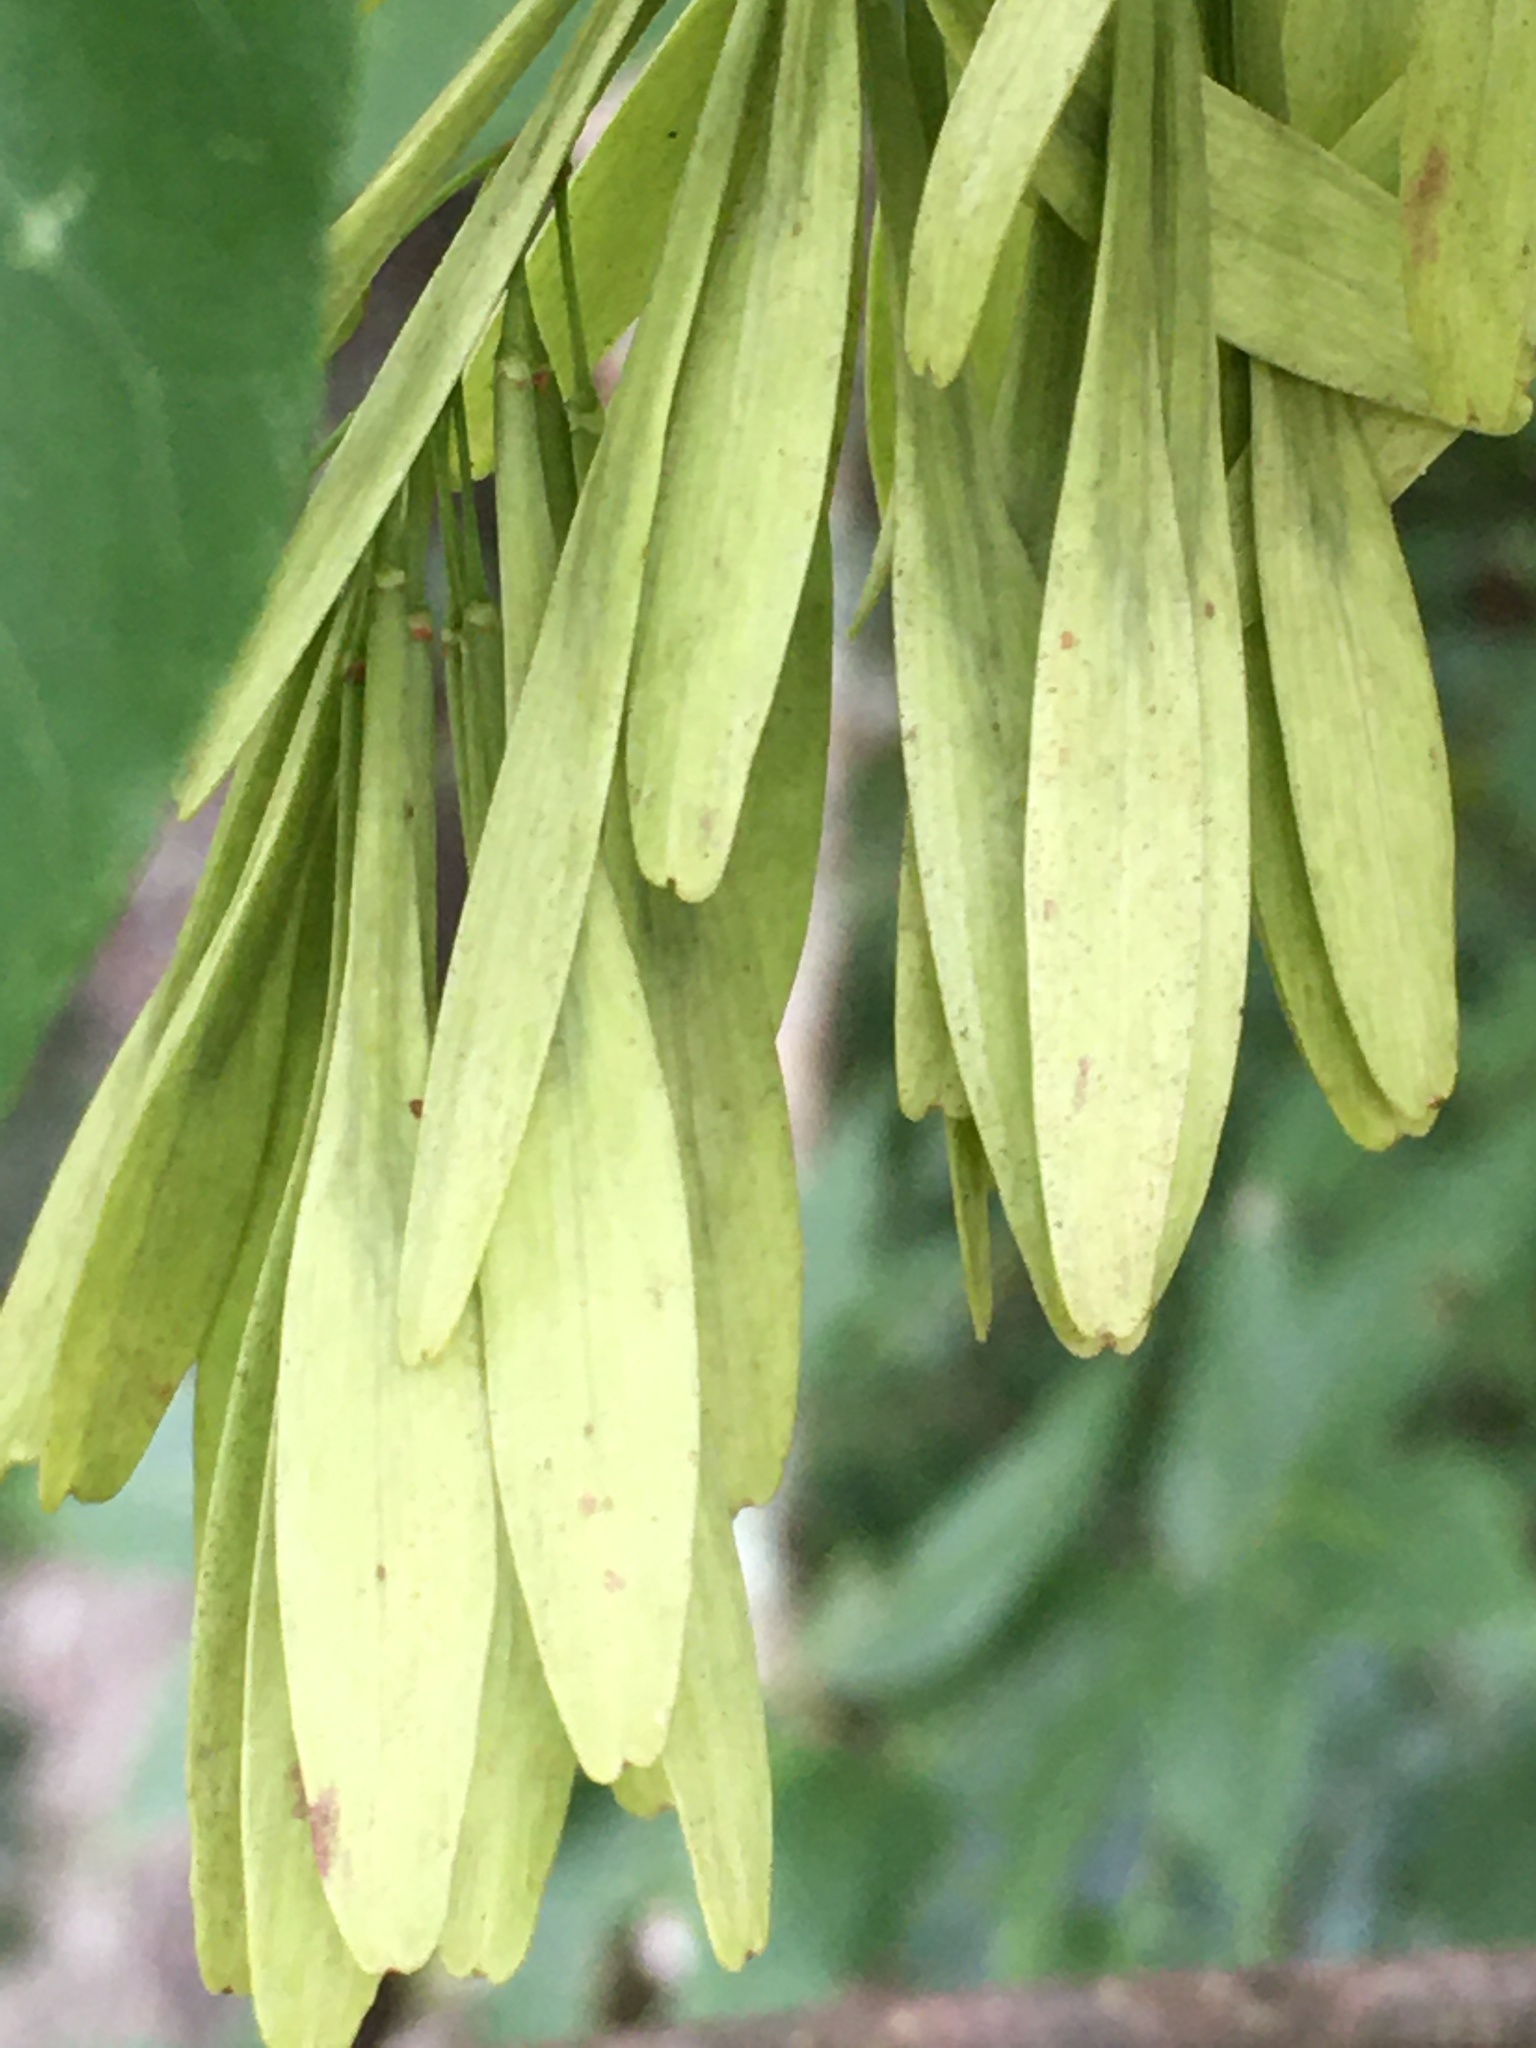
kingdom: Plantae
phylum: Tracheophyta
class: Magnoliopsida
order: Lamiales
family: Oleaceae
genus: Fraxinus
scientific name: Fraxinus pennsylvanica
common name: Green ash
